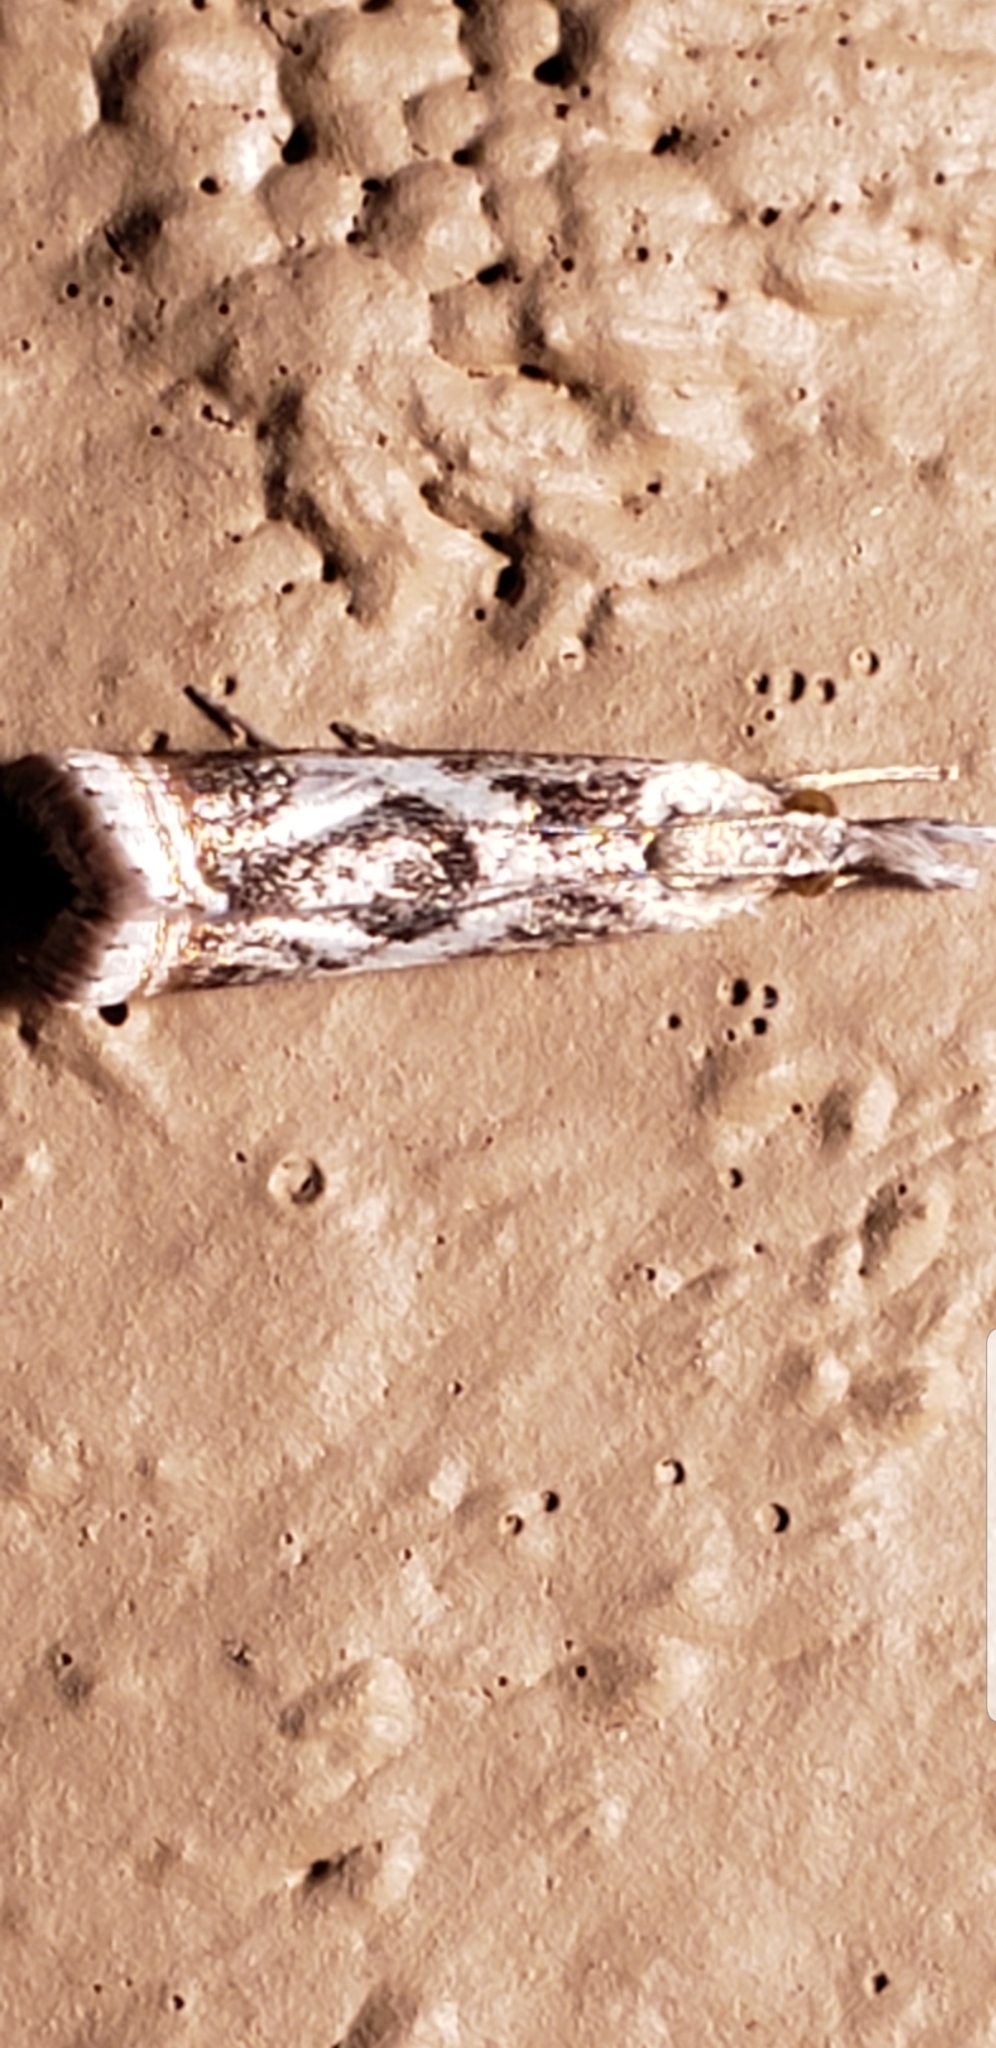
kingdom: Animalia
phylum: Arthropoda
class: Insecta
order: Lepidoptera
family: Crambidae
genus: Microcrambus
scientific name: Microcrambus elegans
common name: Elegant grass-veneer
